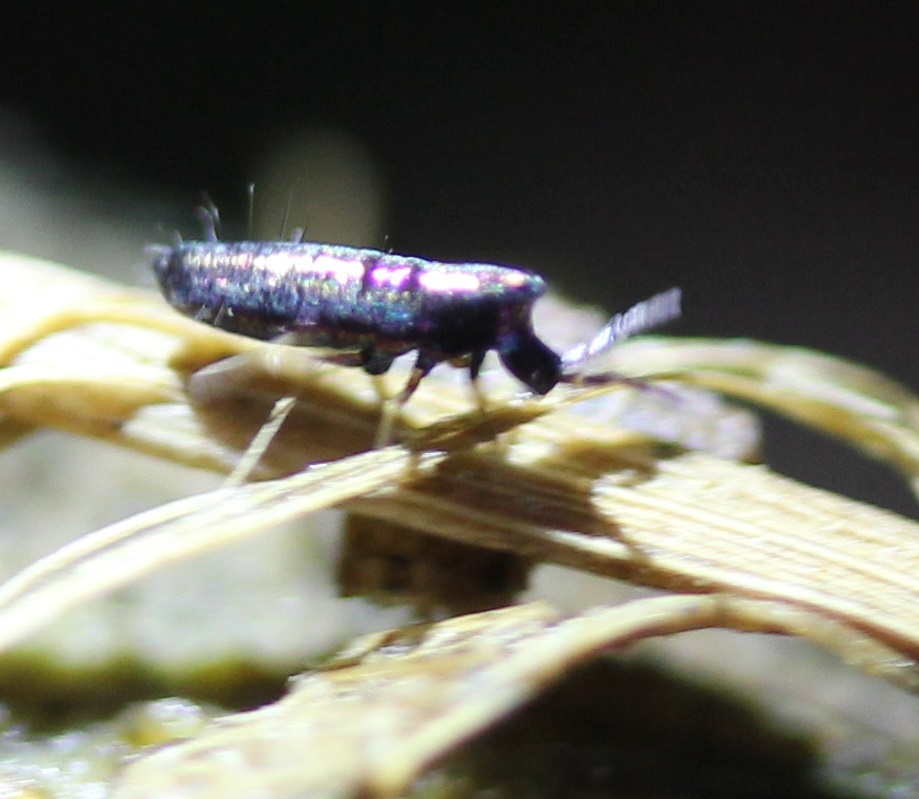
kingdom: Animalia
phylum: Arthropoda
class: Collembola
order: Entomobryomorpha
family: Entomobryidae
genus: Lepidocyrtus
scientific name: Lepidocyrtus paradoxus
